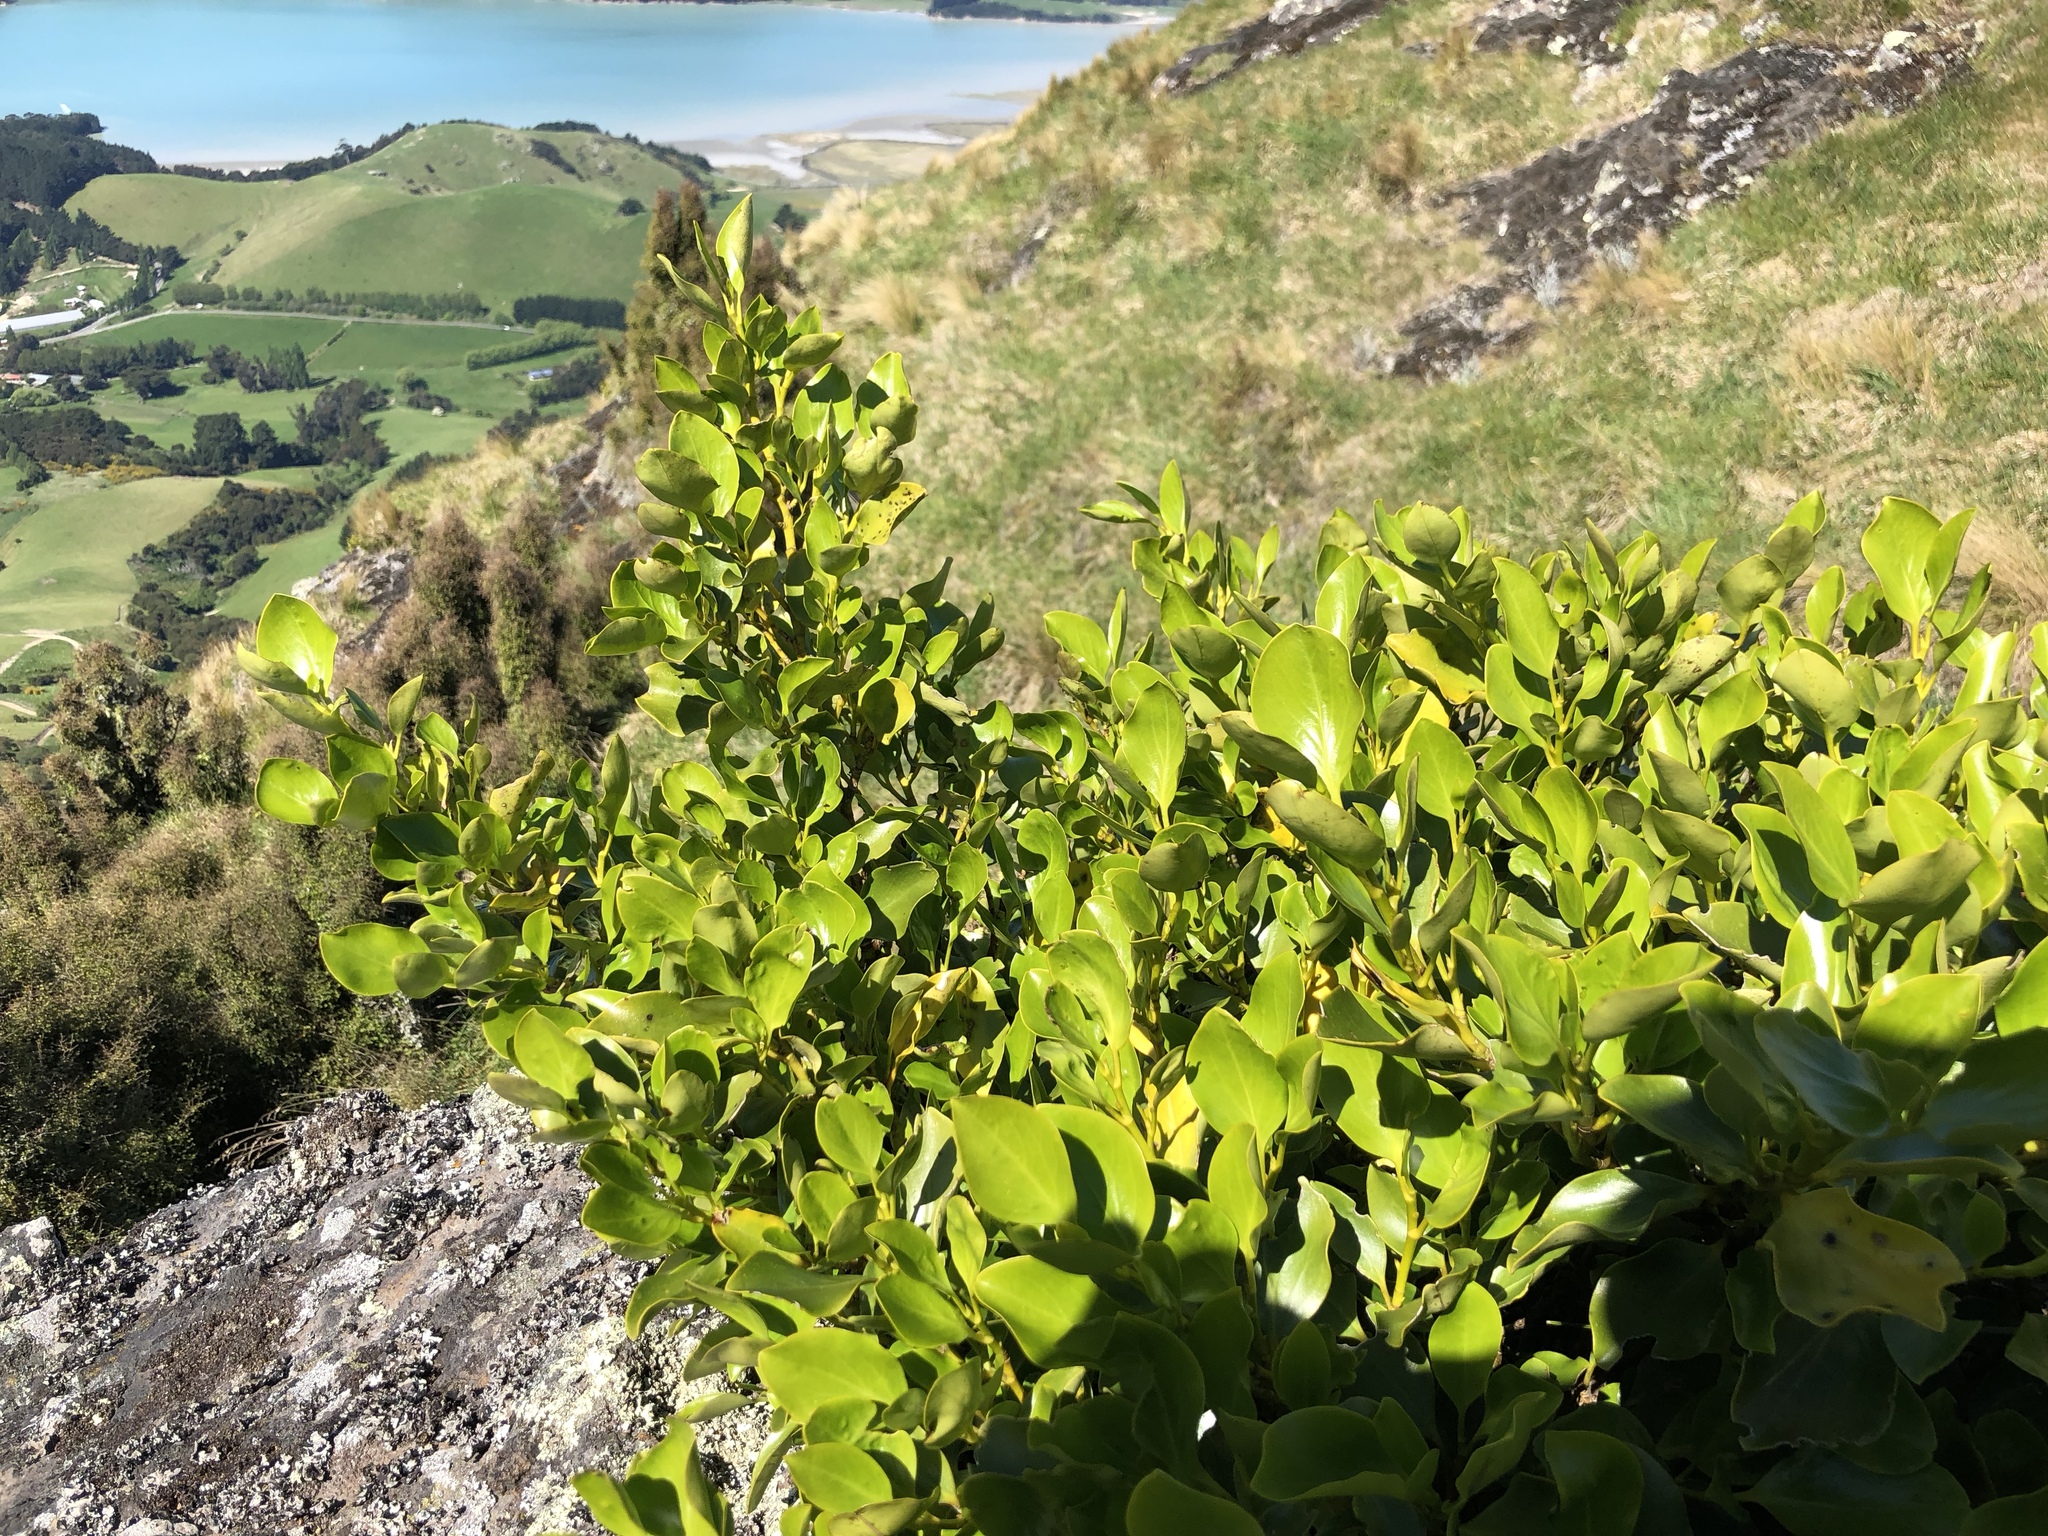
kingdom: Plantae
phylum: Tracheophyta
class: Magnoliopsida
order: Apiales
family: Griseliniaceae
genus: Griselinia
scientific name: Griselinia littoralis
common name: New zealand broadleaf
